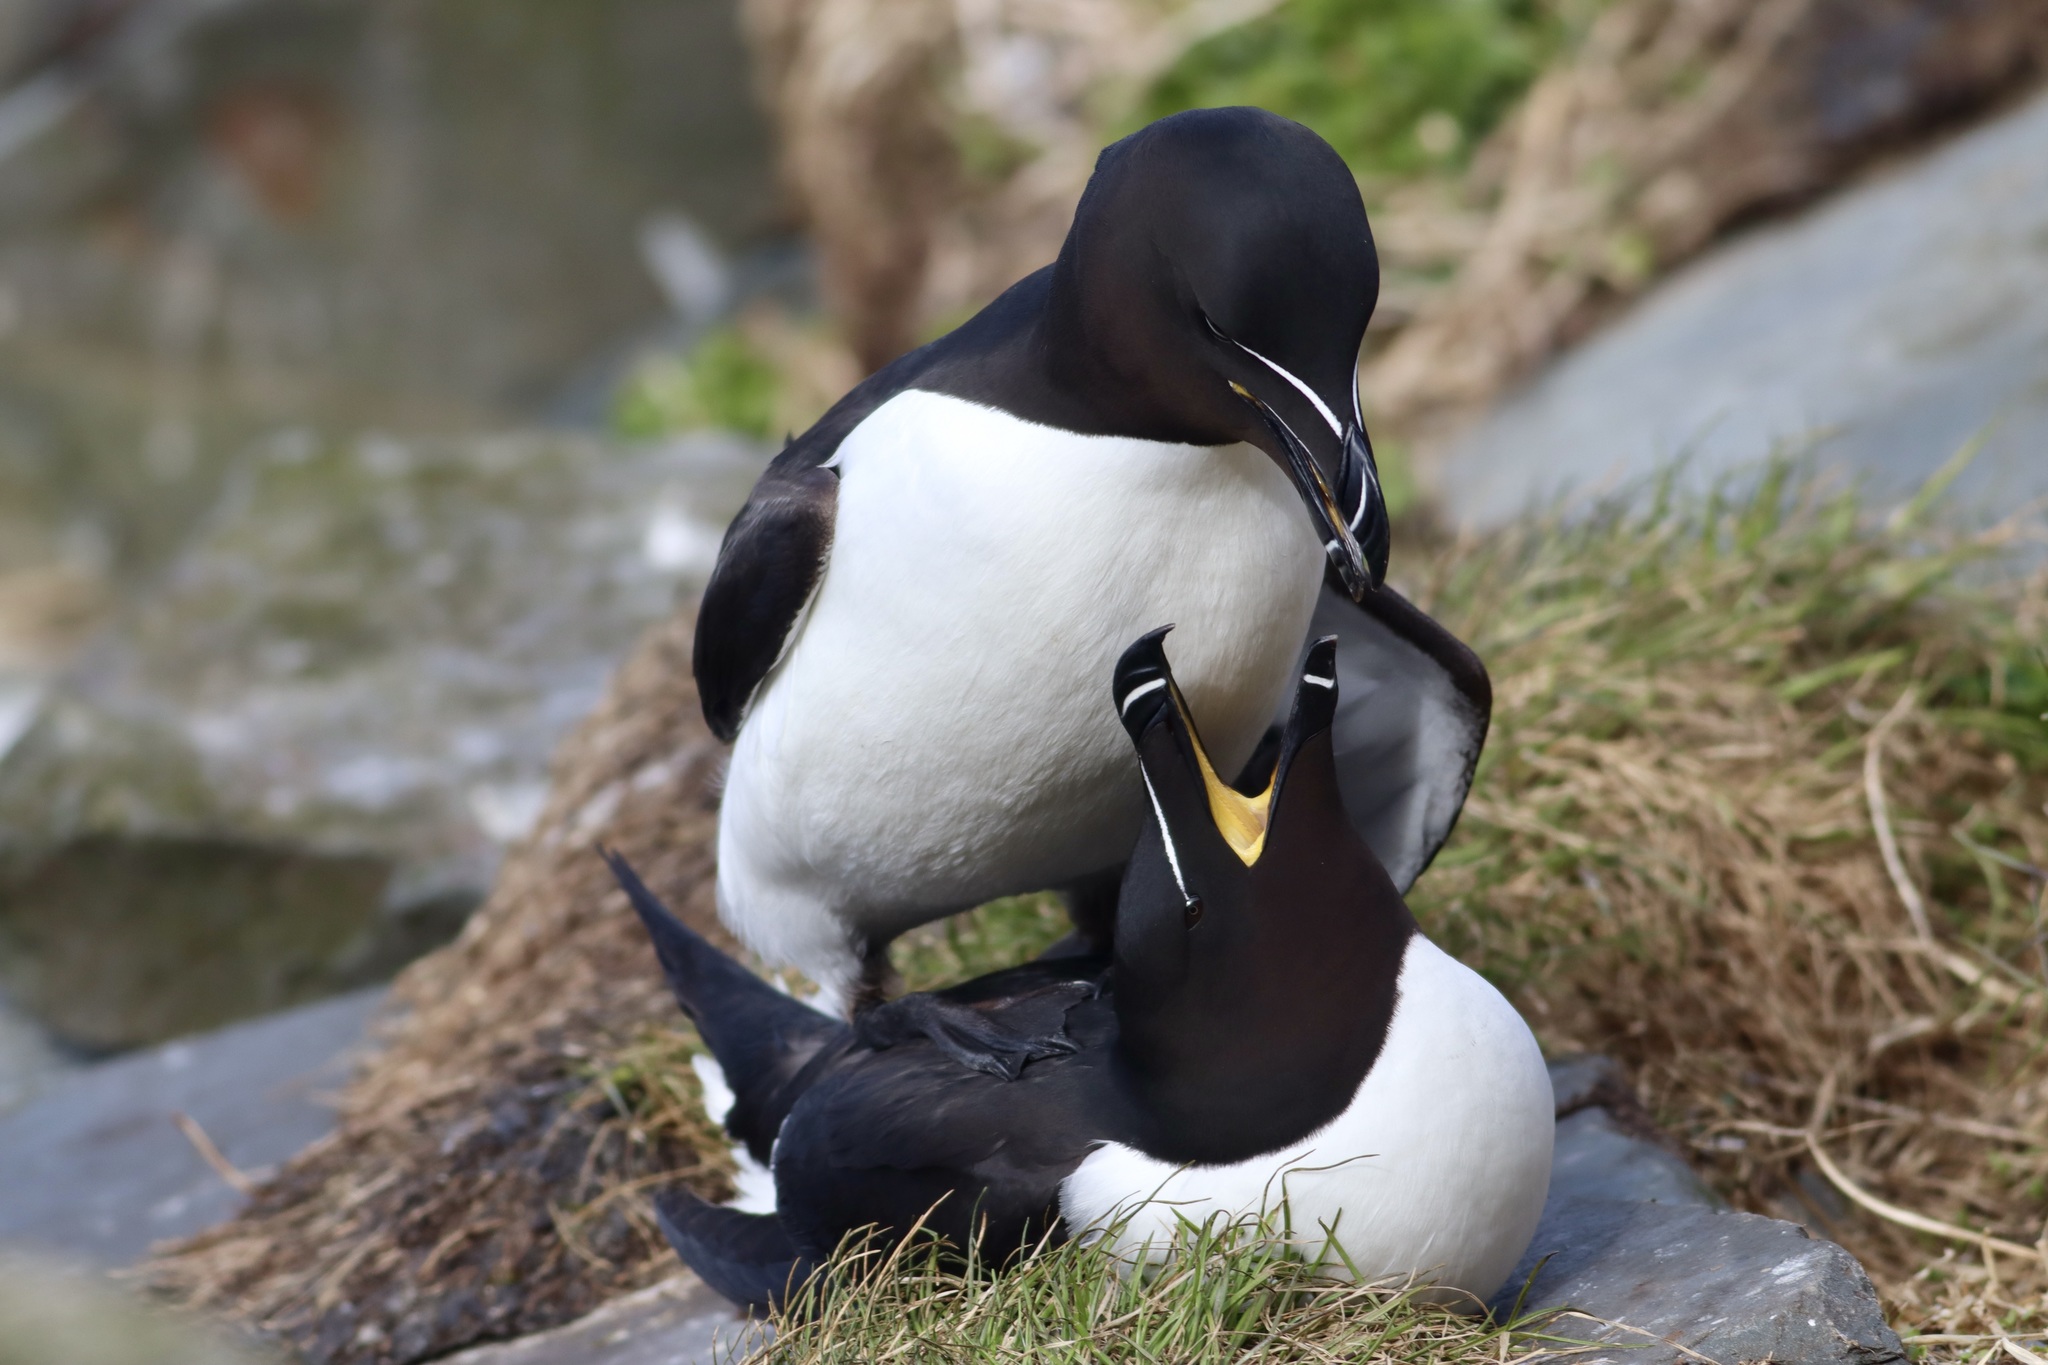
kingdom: Animalia
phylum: Chordata
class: Aves
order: Charadriiformes
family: Alcidae
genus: Alca
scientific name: Alca torda
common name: Razorbill
